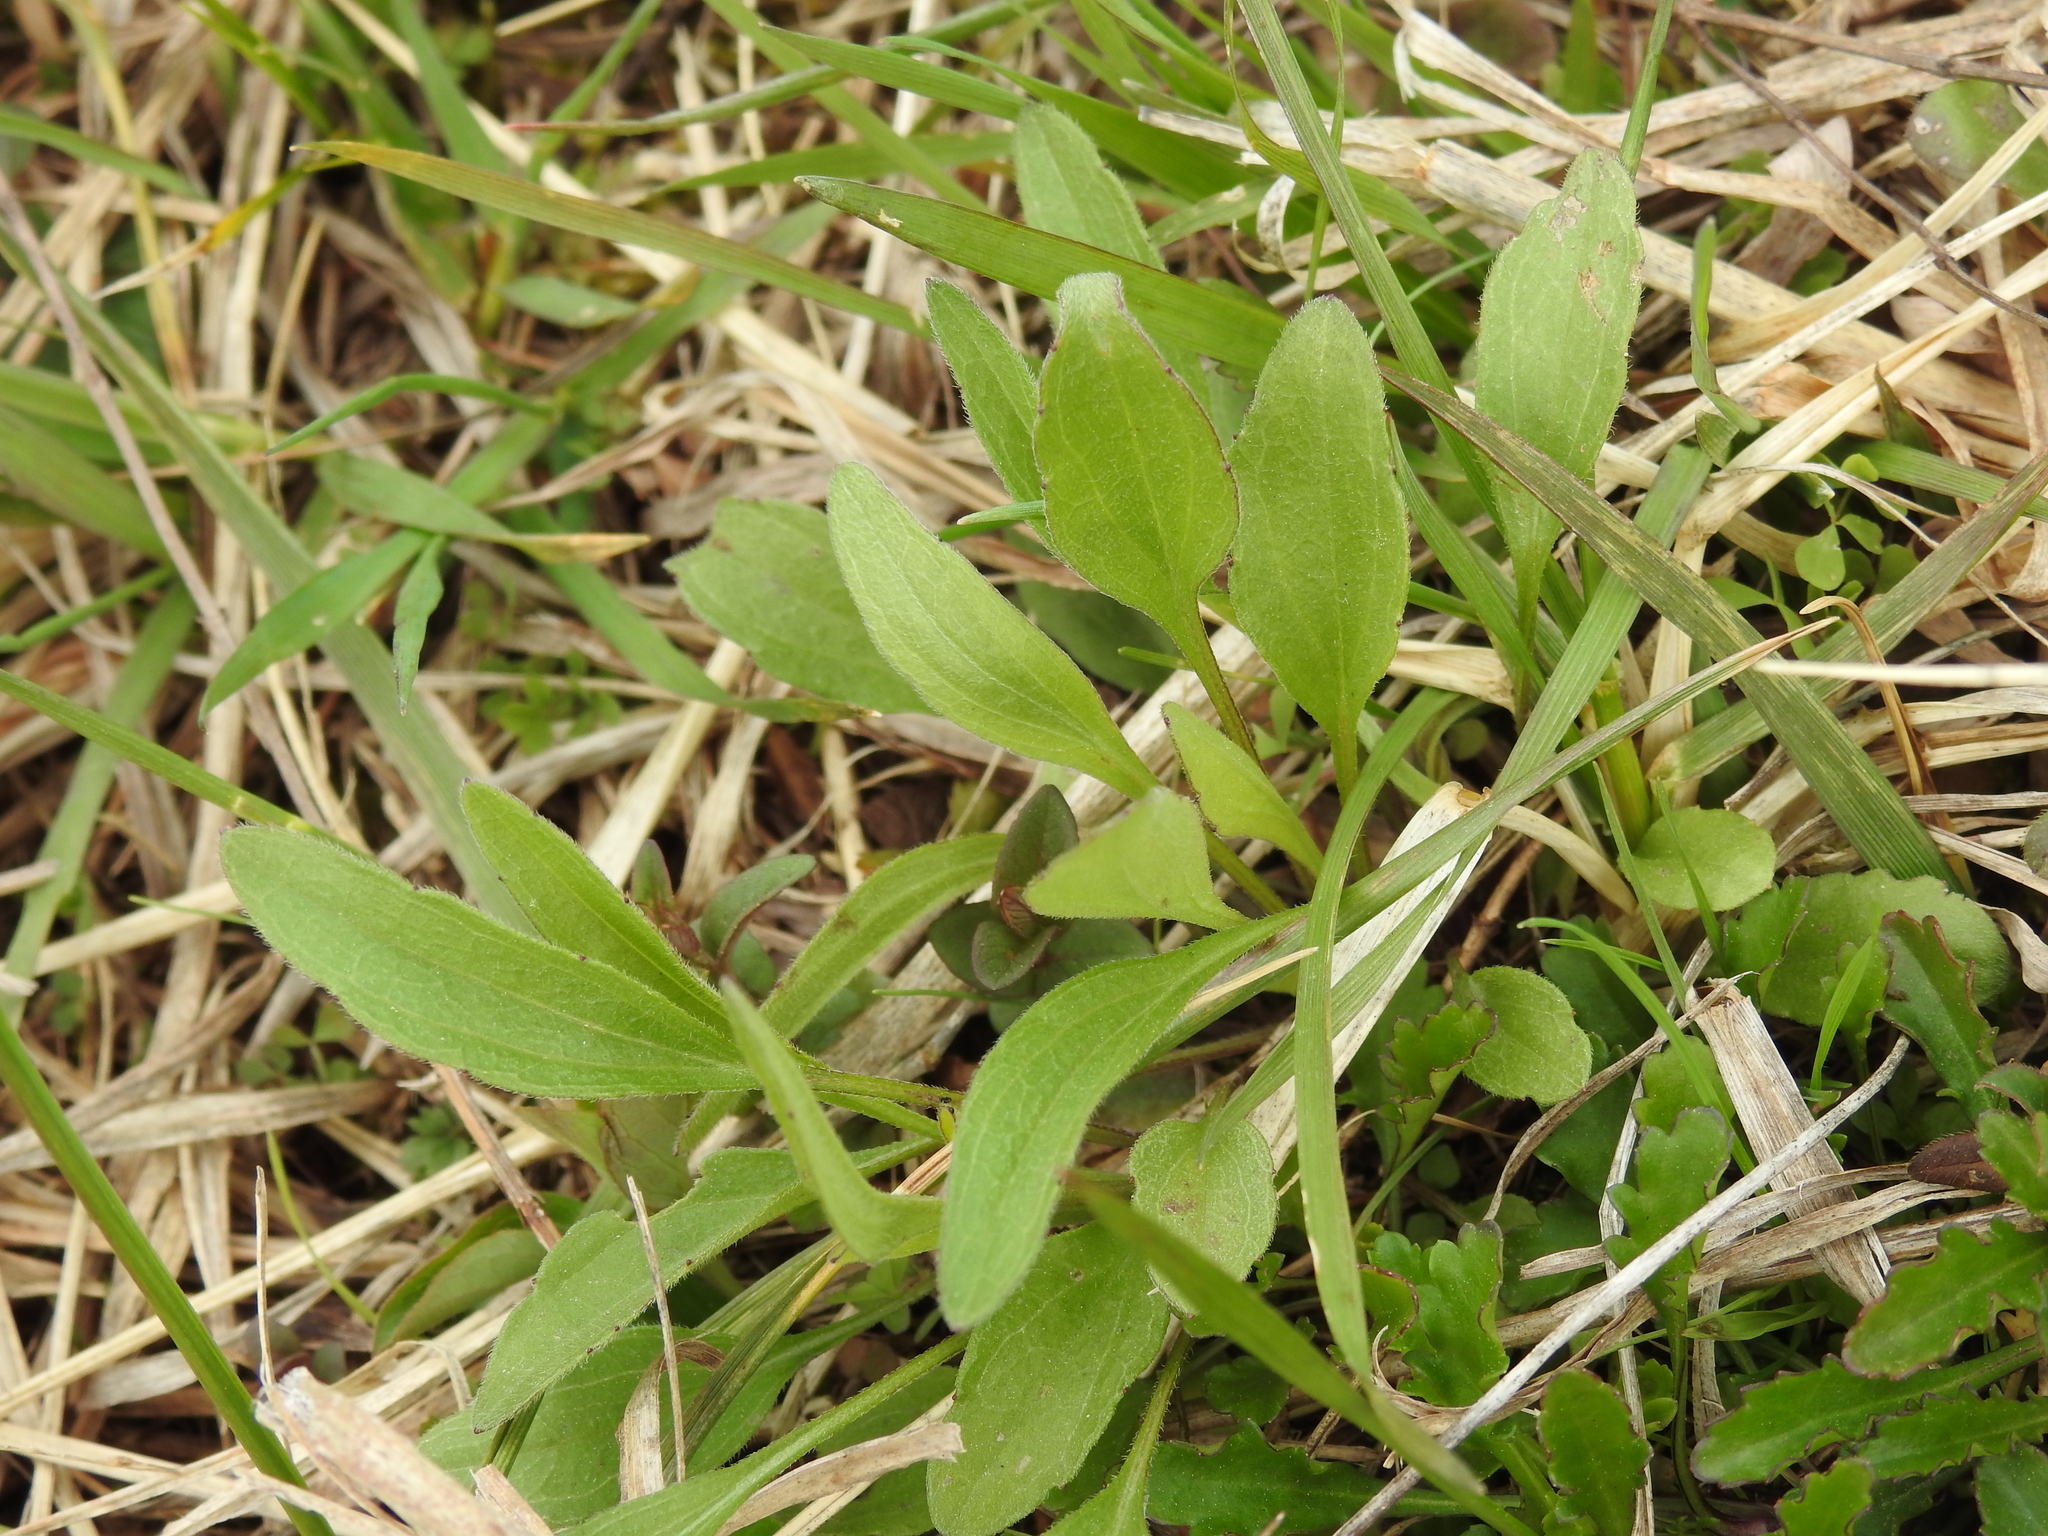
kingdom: Plantae
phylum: Tracheophyta
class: Magnoliopsida
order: Asterales
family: Asteraceae
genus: Rudbeckia
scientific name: Rudbeckia hirta
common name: Black-eyed-susan
